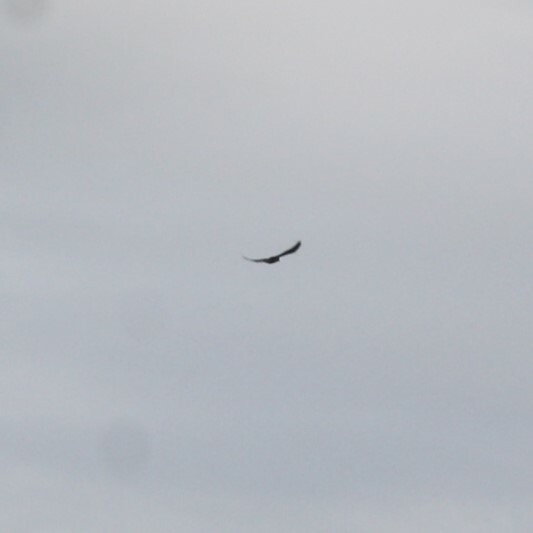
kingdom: Animalia
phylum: Chordata
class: Aves
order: Accipitriformes
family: Accipitridae
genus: Buteo
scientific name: Buteo buteo
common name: Common buzzard
